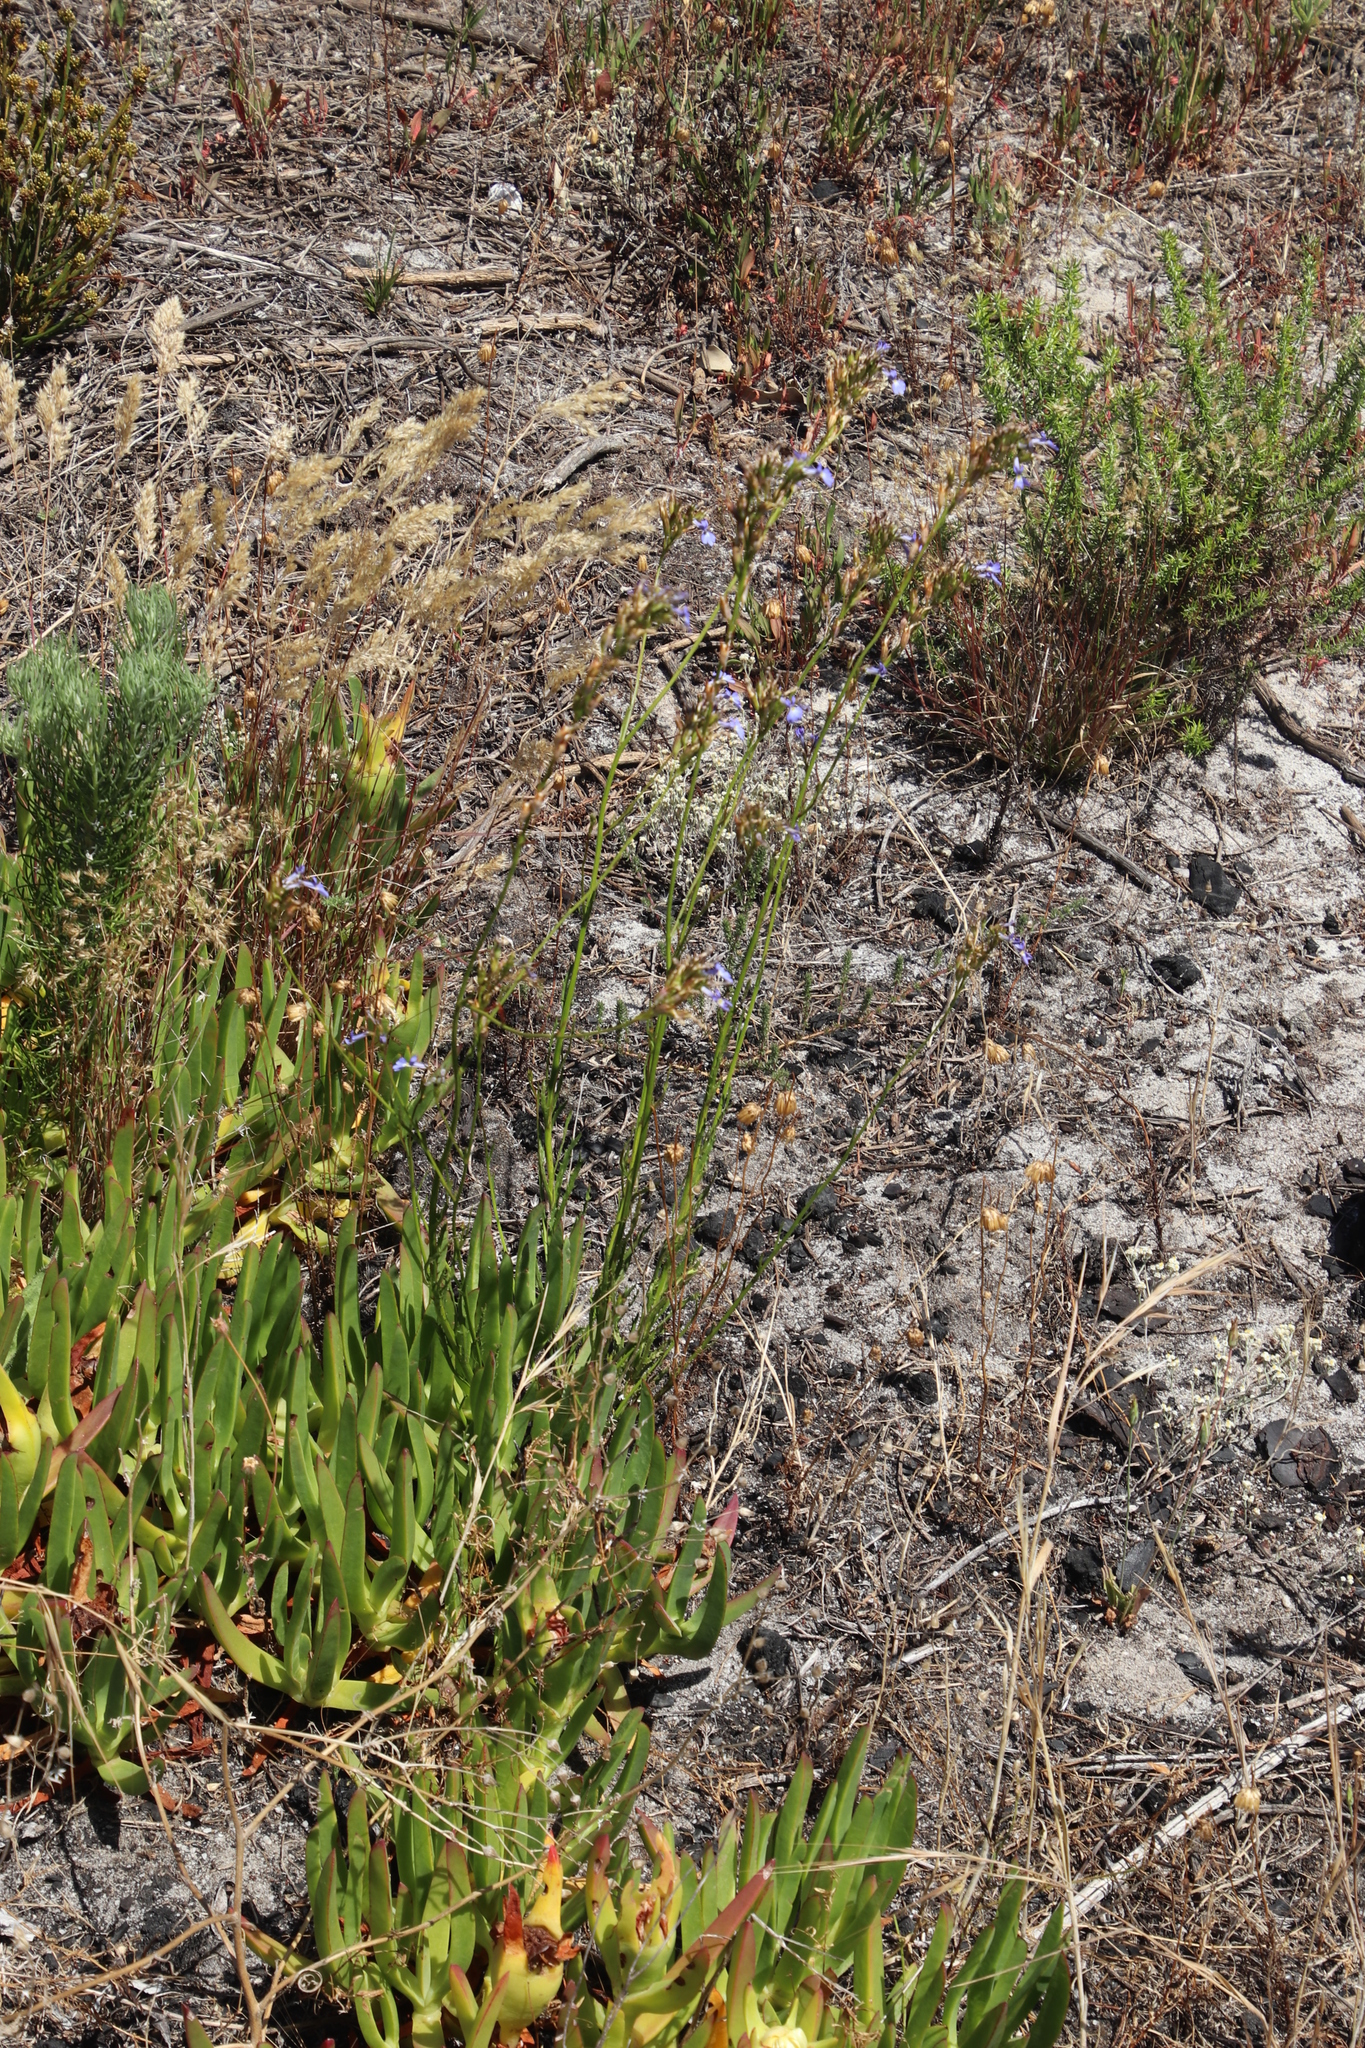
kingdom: Plantae
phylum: Tracheophyta
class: Magnoliopsida
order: Asterales
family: Campanulaceae
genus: Lobelia
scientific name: Lobelia comosa
